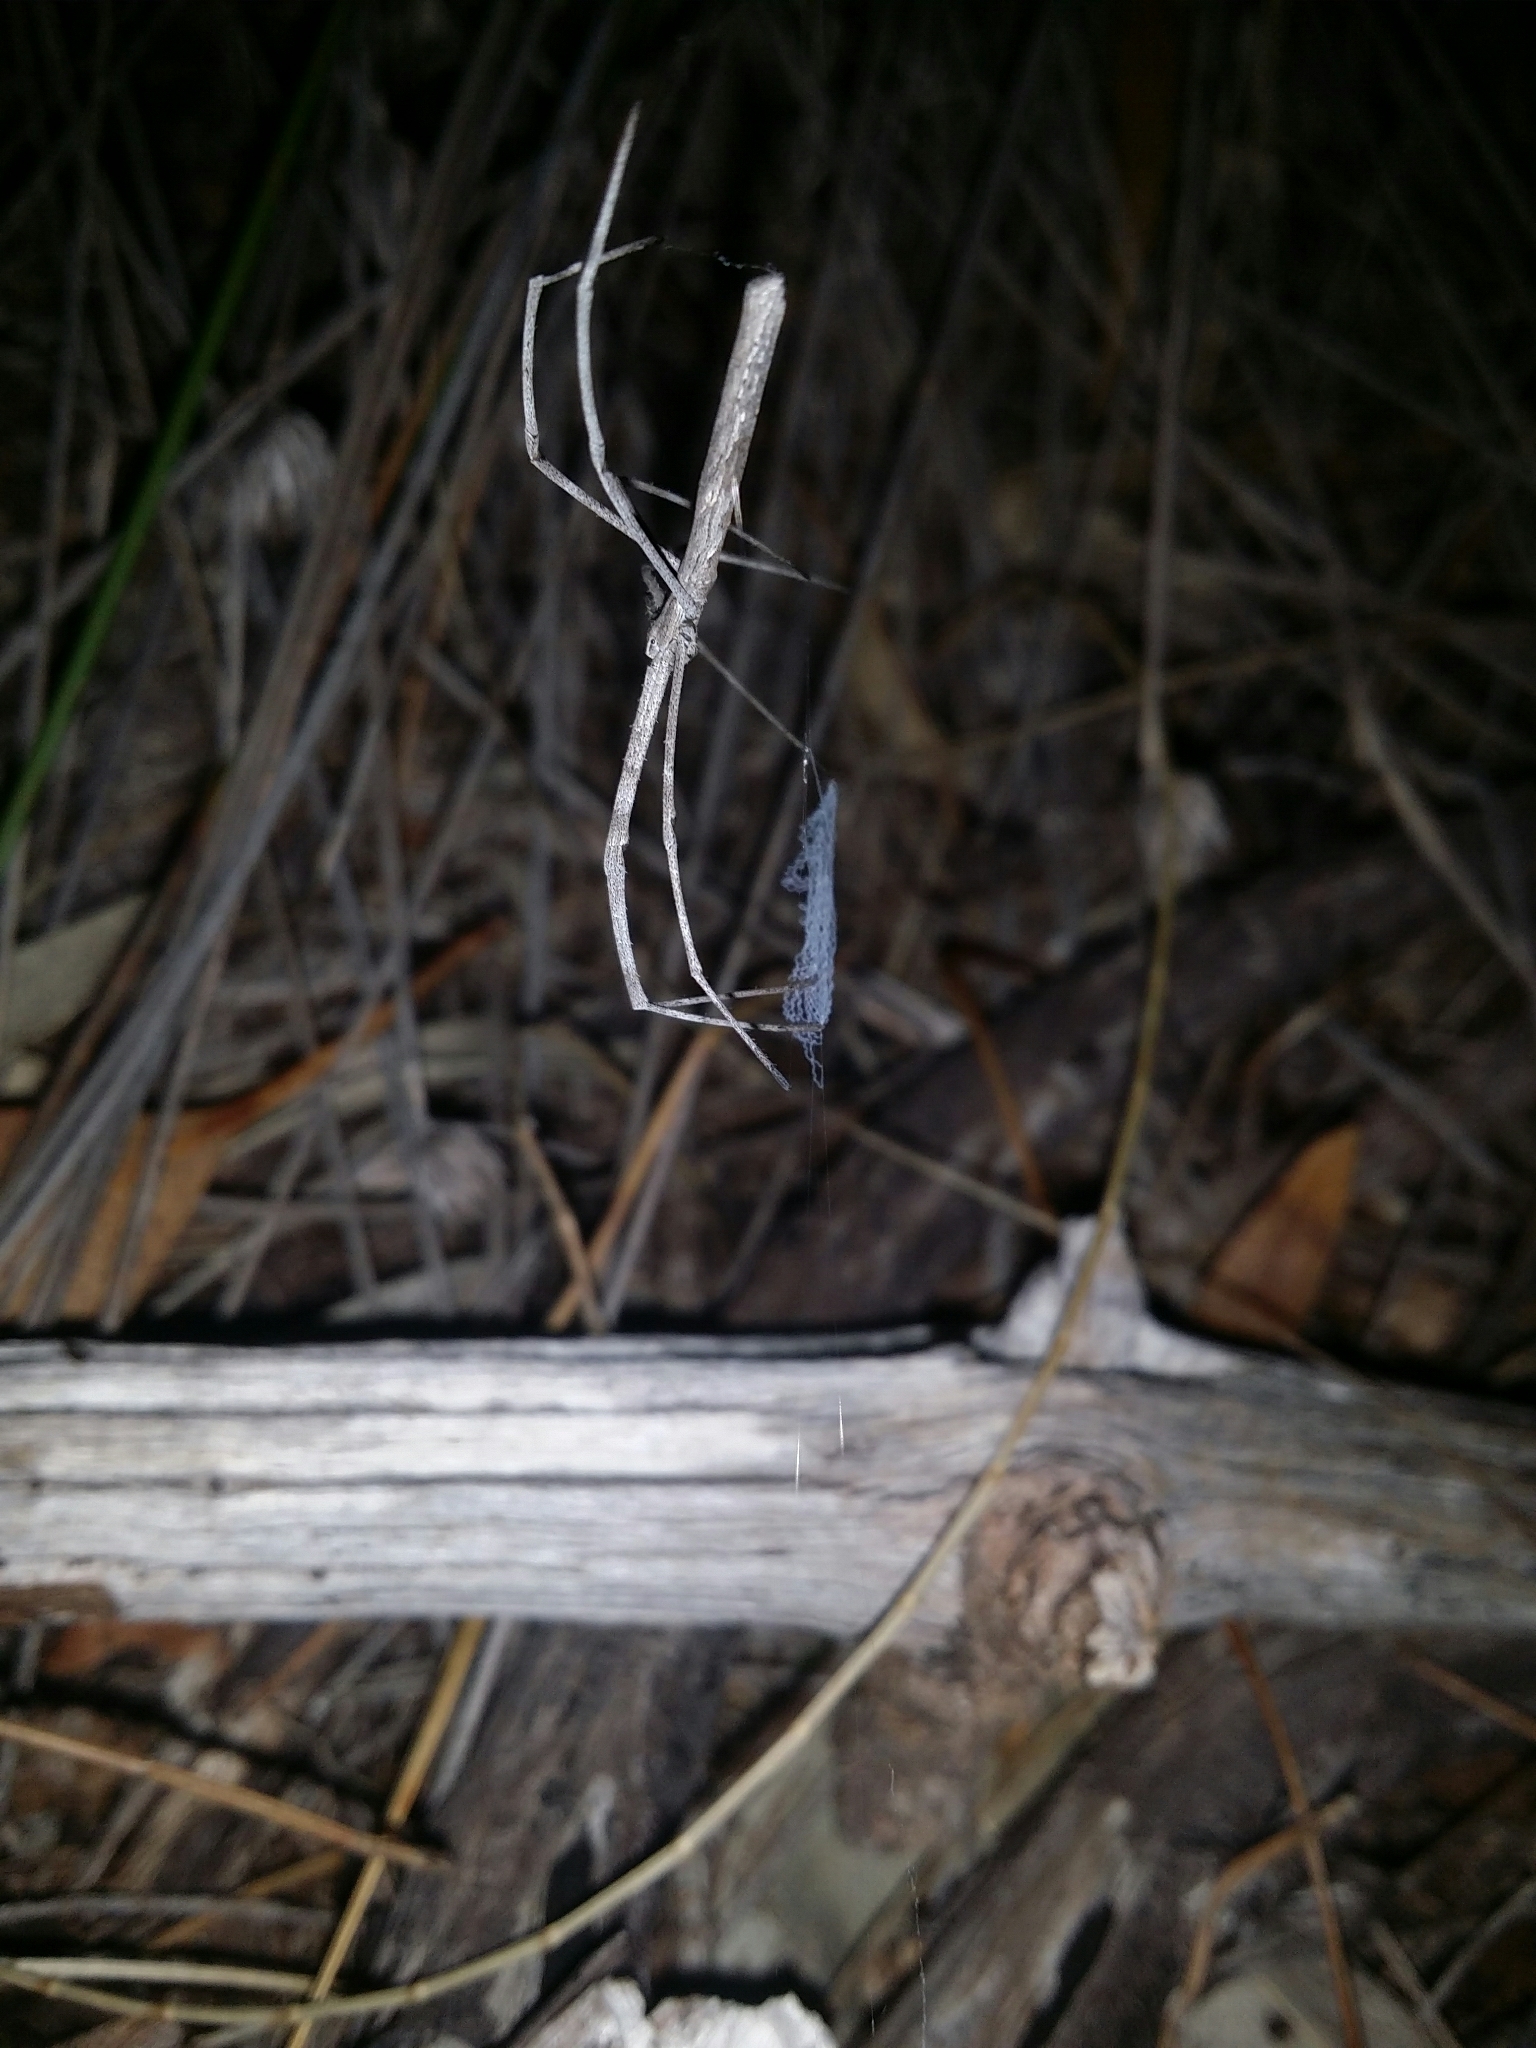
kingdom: Animalia
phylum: Arthropoda
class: Arachnida
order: Araneae
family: Deinopidae
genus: Deinopis
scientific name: Deinopis subrufa
